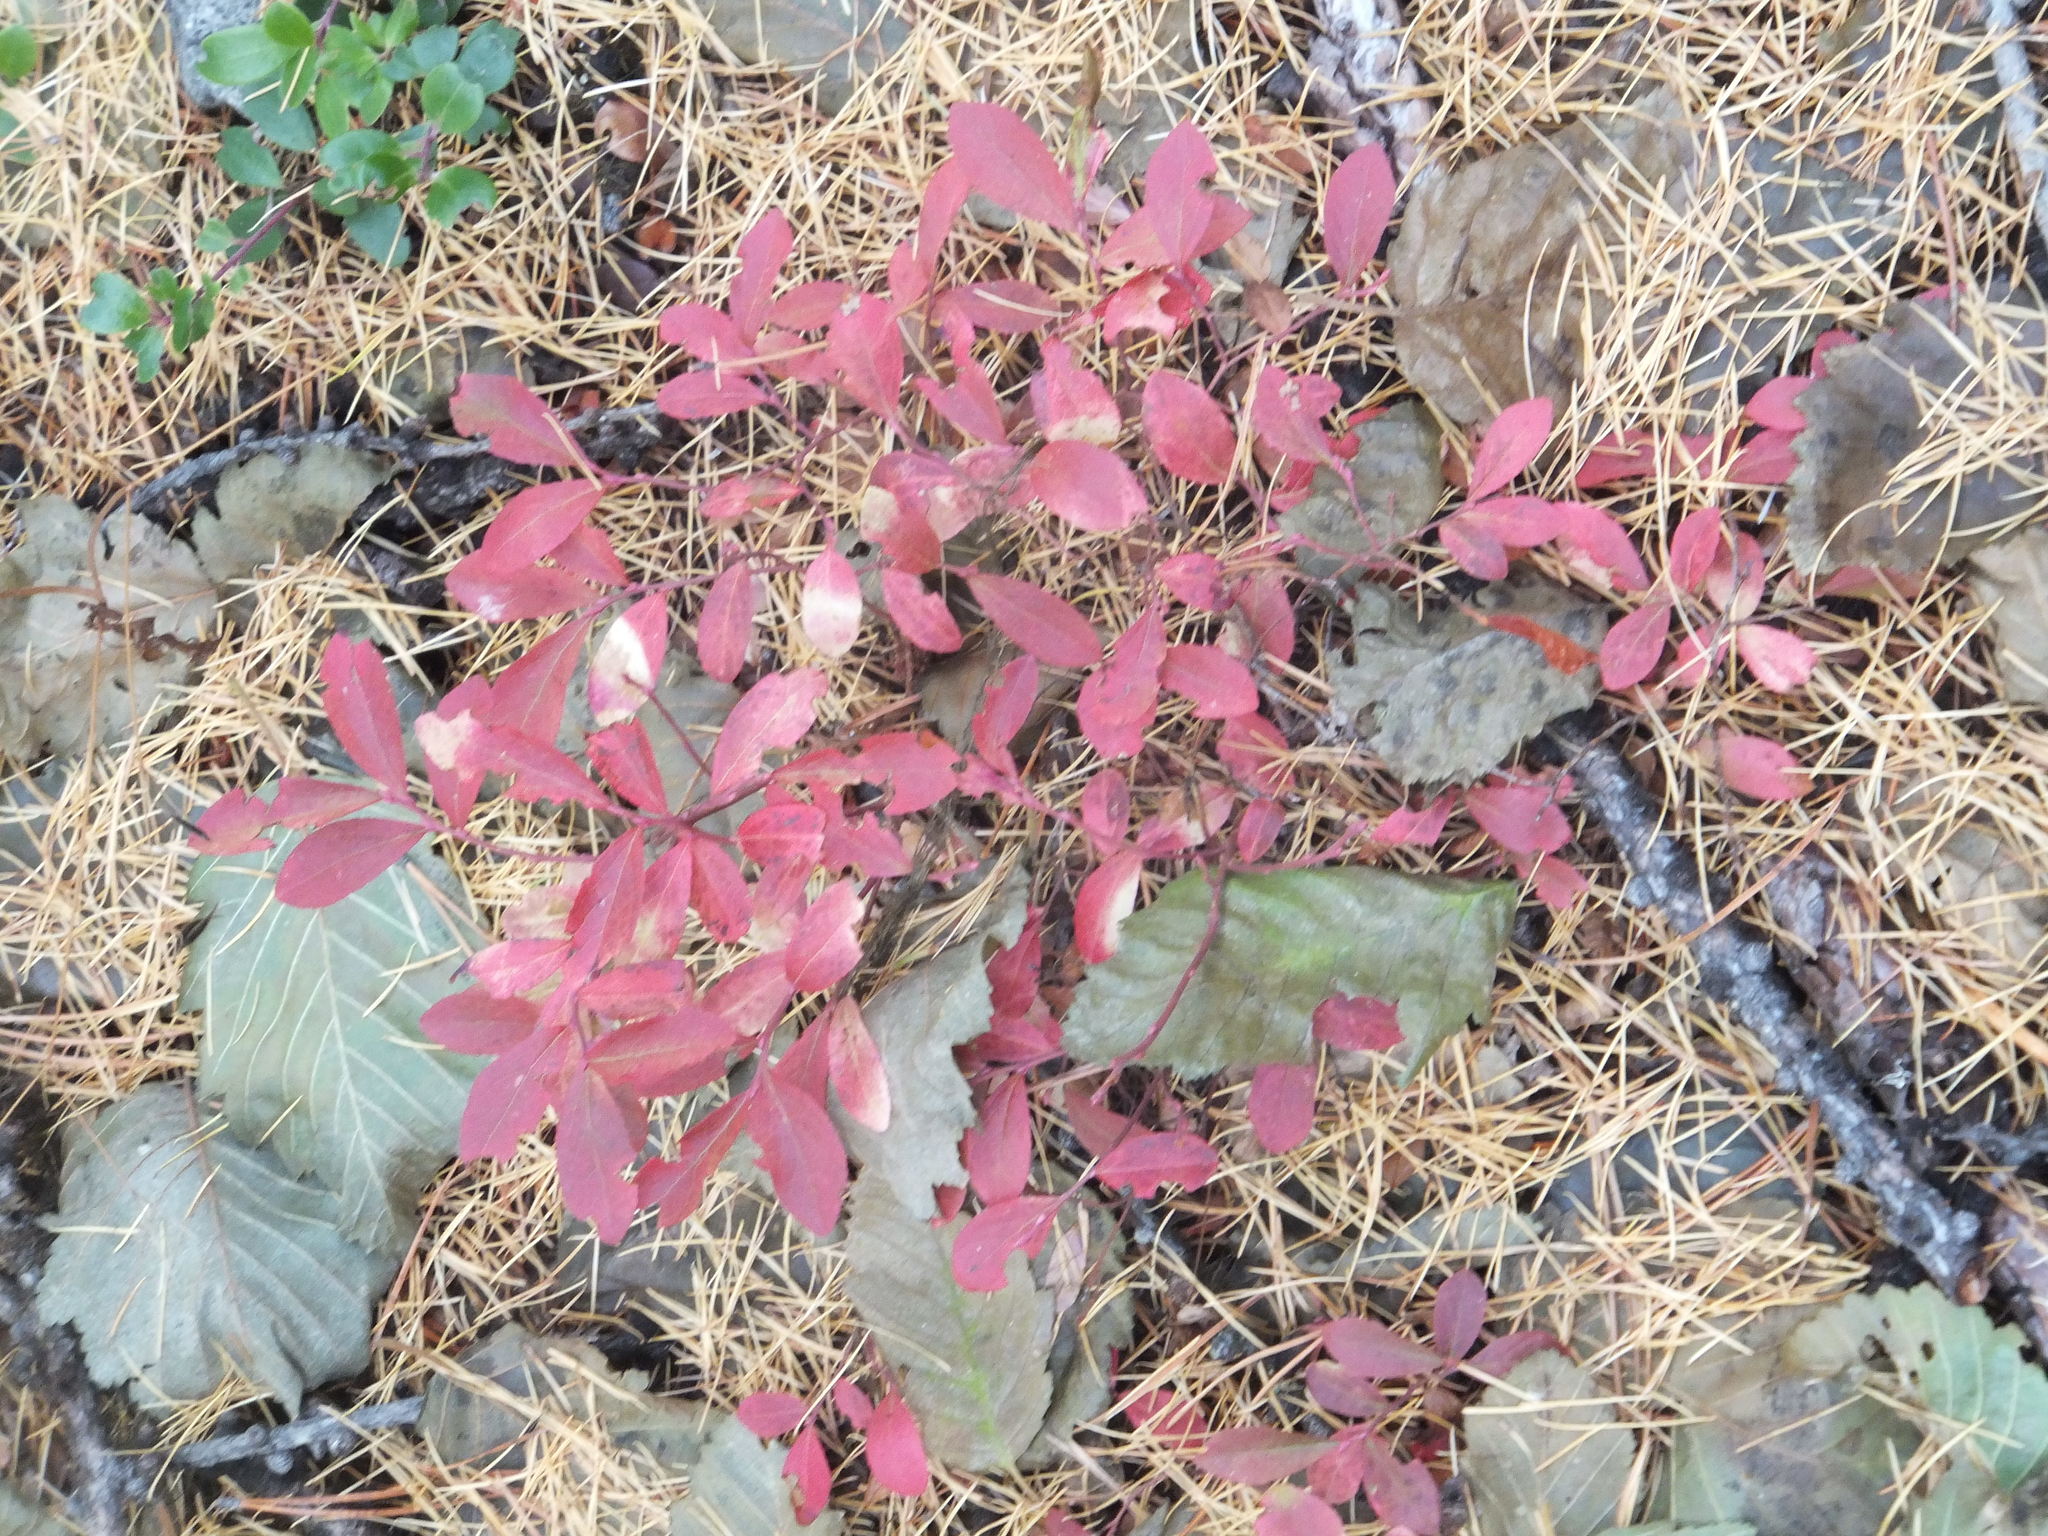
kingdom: Plantae
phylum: Tracheophyta
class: Magnoliopsida
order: Ericales
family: Ericaceae
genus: Vaccinium
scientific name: Vaccinium cespitosum
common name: Dwarf bilberry
